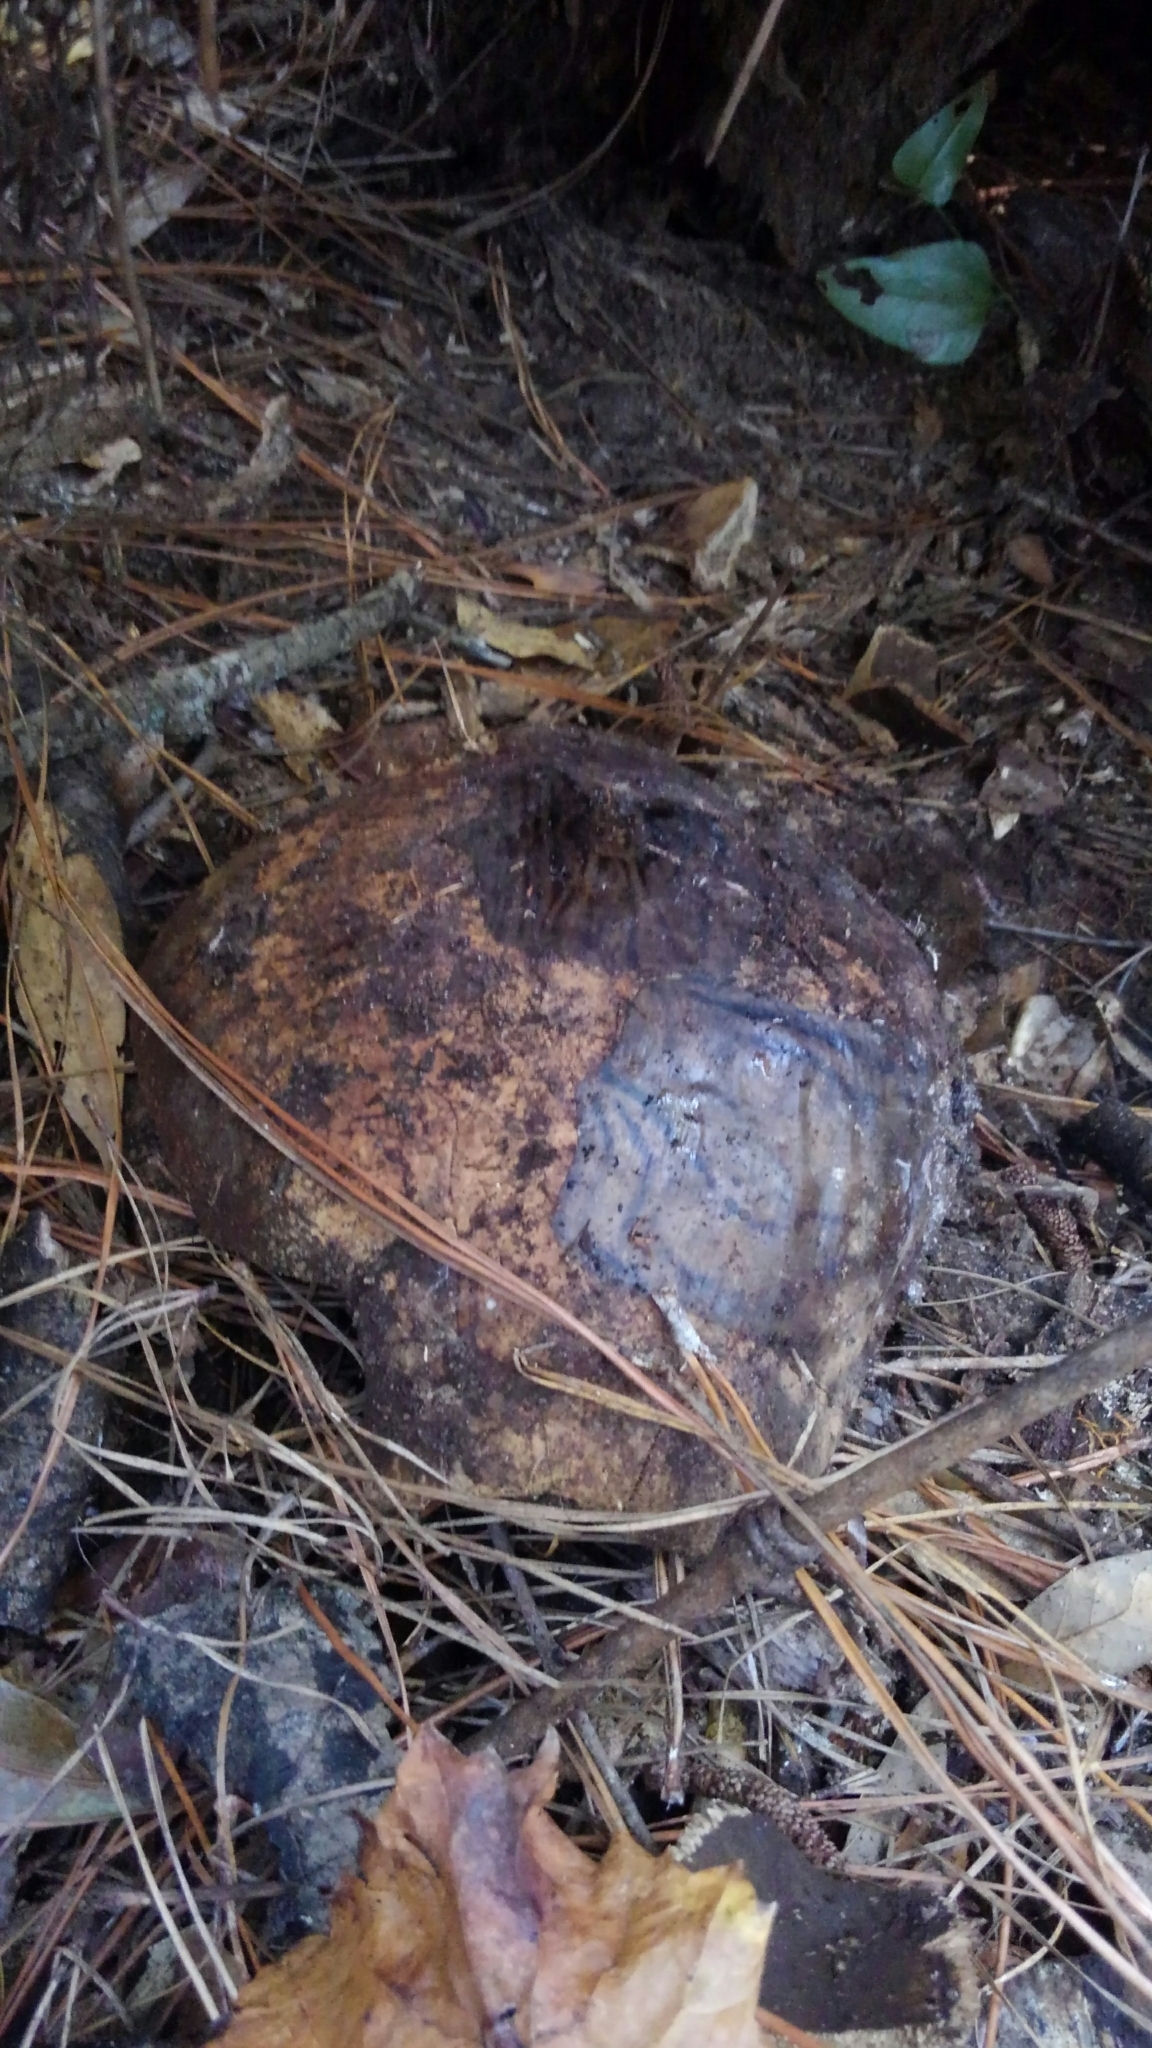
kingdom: Animalia
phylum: Chordata
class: Testudines
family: Testudinidae
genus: Gopherus
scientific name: Gopherus polyphemus
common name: Florida gopher tortoise
